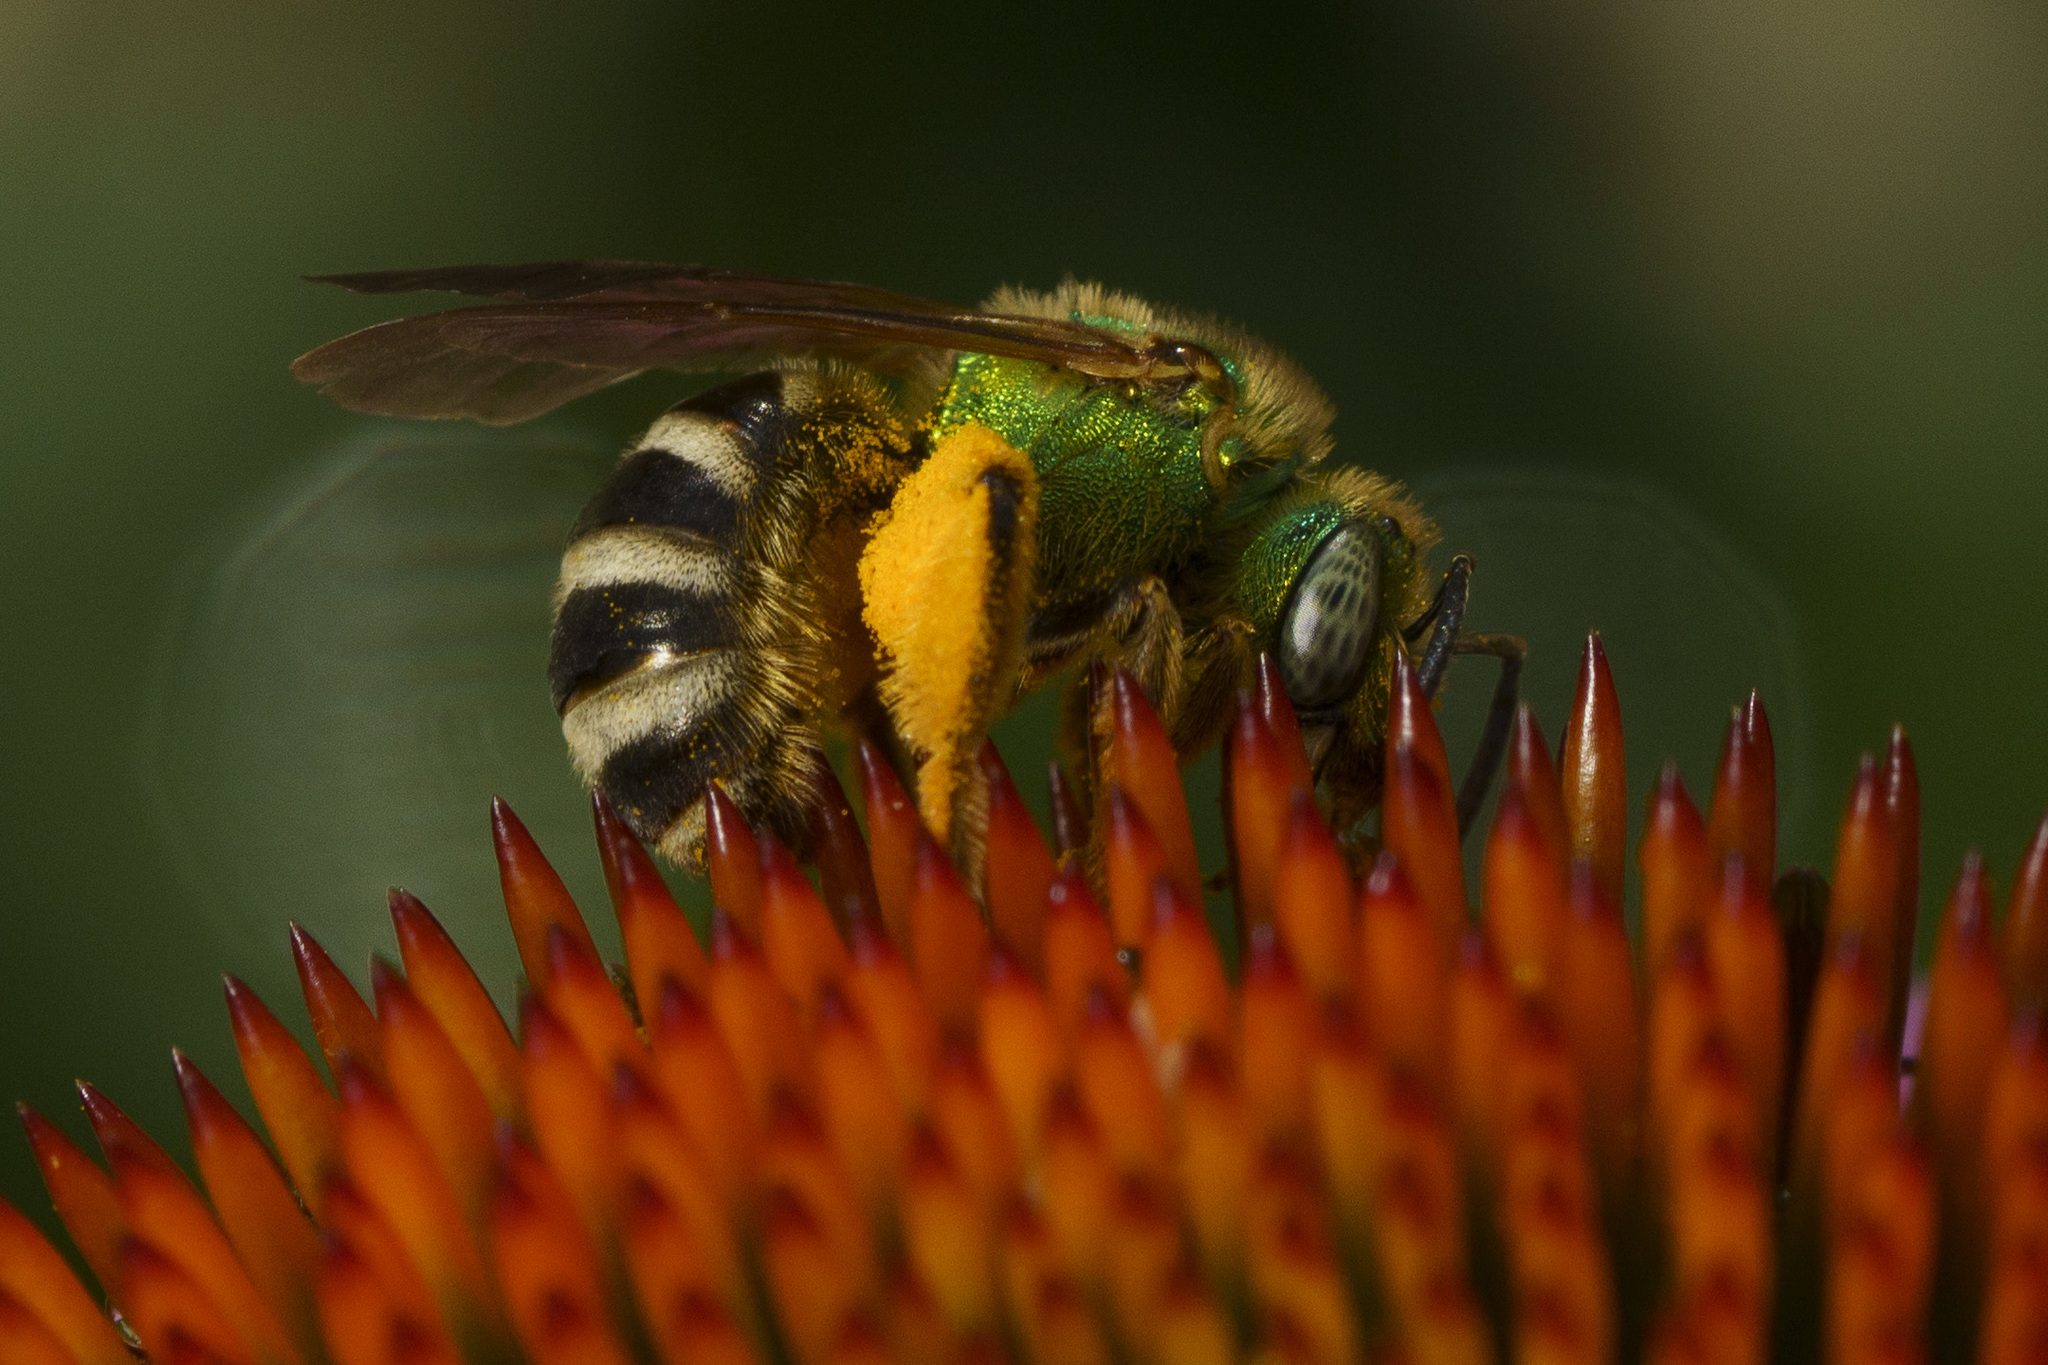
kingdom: Animalia
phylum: Arthropoda
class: Insecta
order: Hymenoptera
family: Halictidae
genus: Agapostemon
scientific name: Agapostemon virescens
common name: Bicolored striped sweat bee
